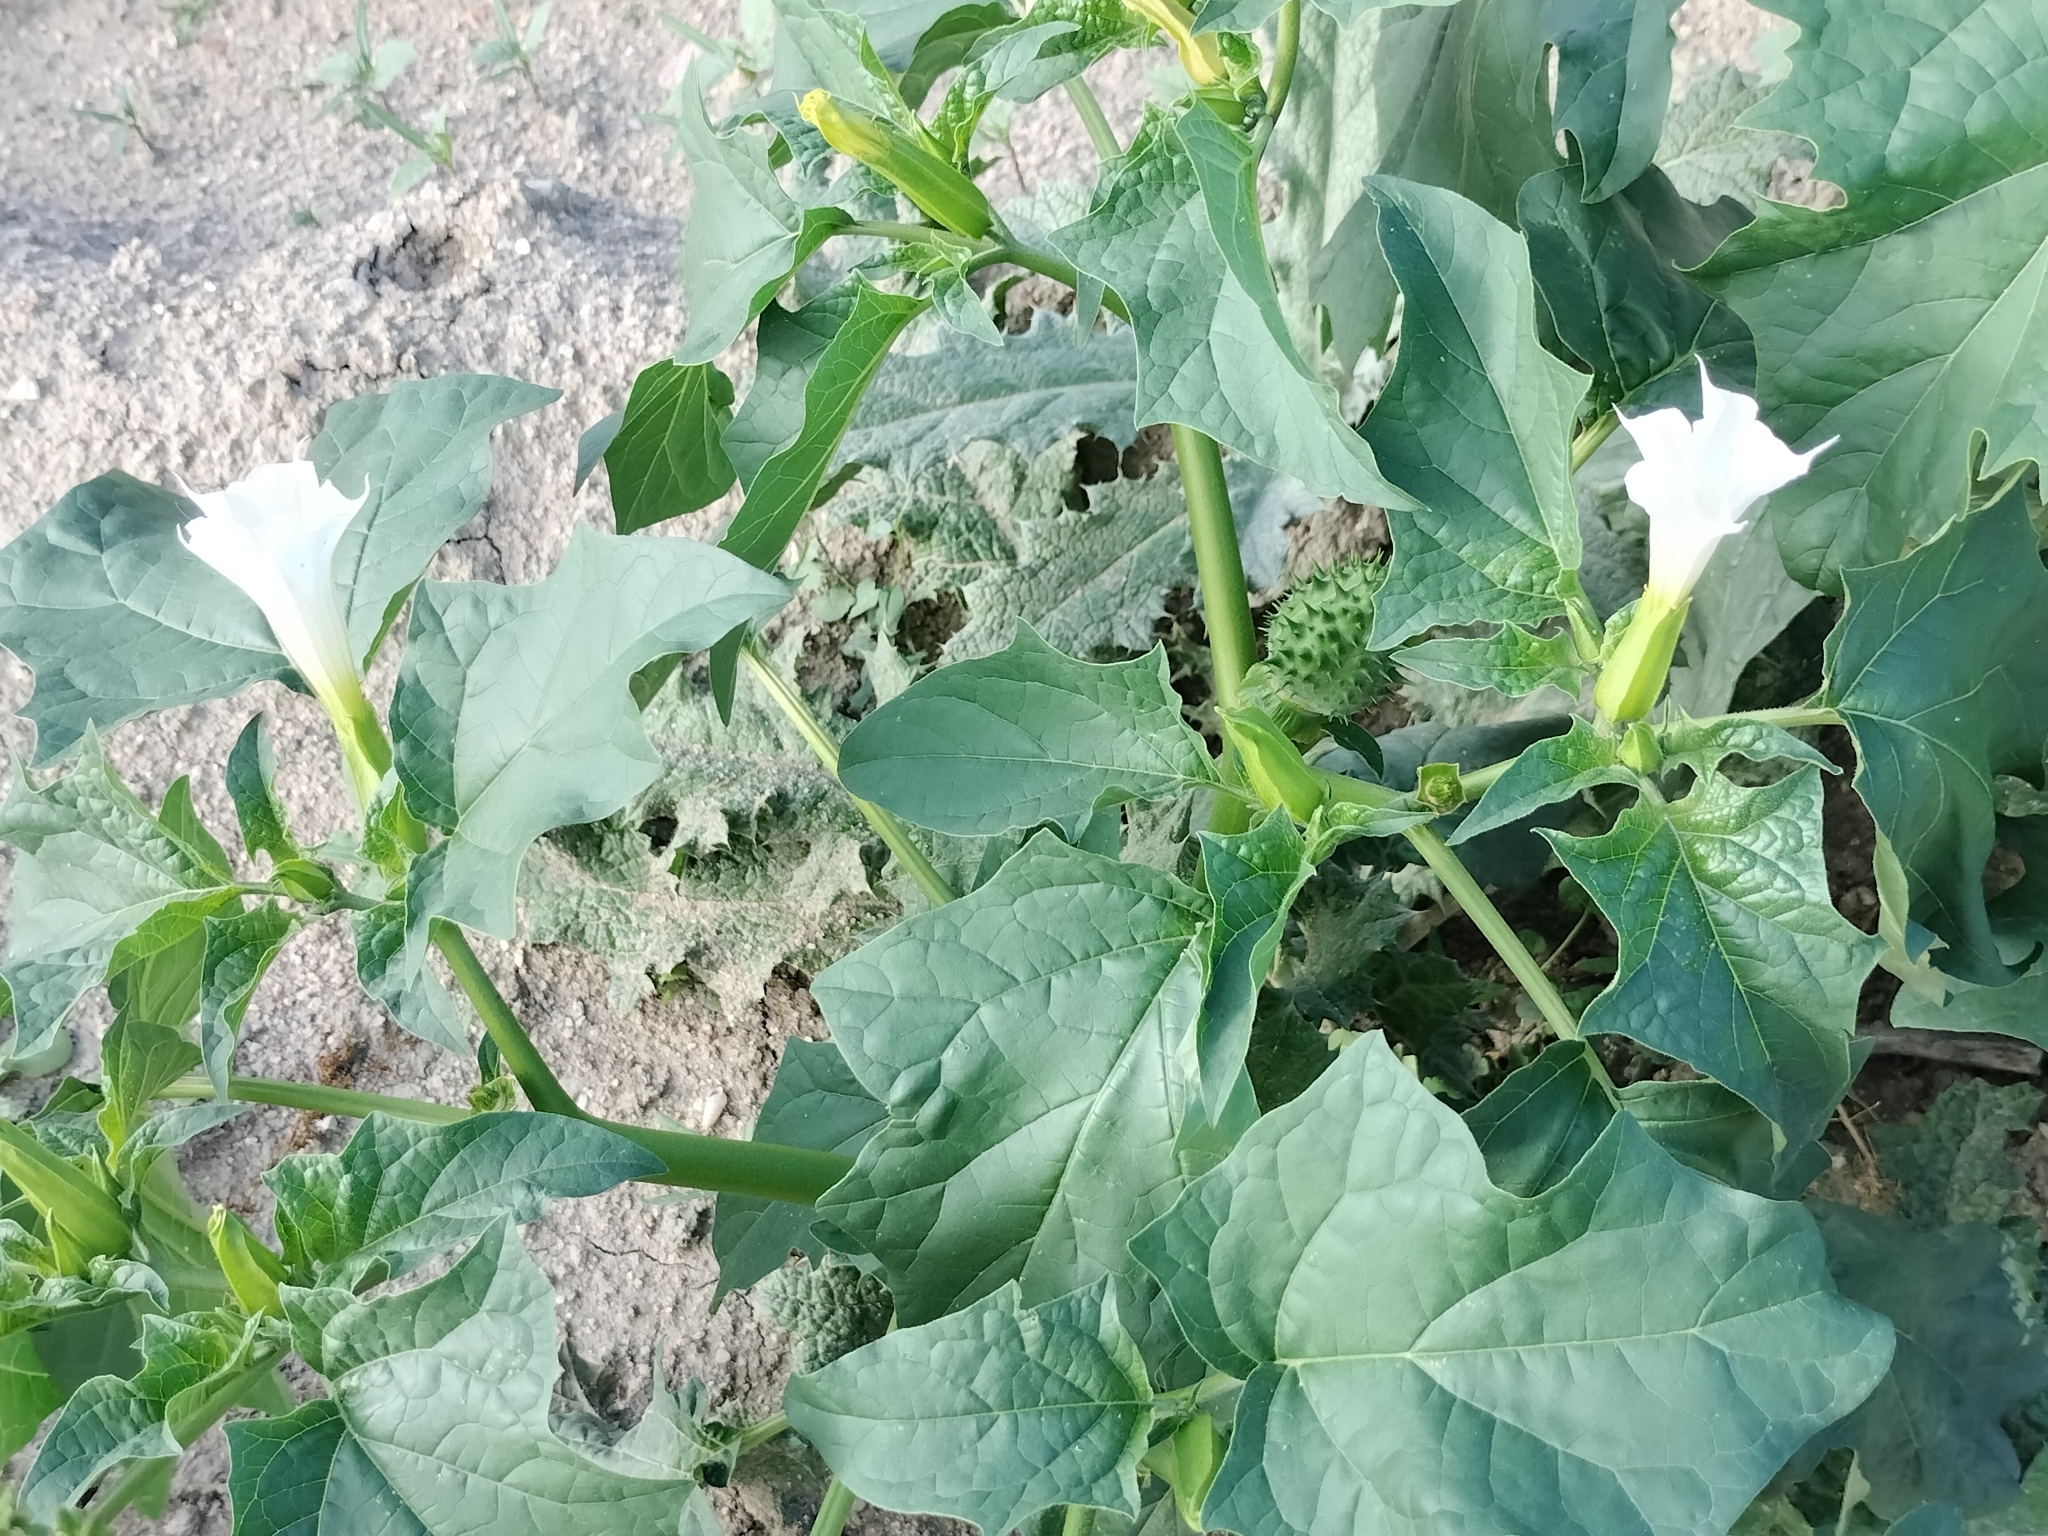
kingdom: Plantae
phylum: Tracheophyta
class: Magnoliopsida
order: Solanales
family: Solanaceae
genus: Datura
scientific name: Datura stramonium
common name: Thorn-apple
